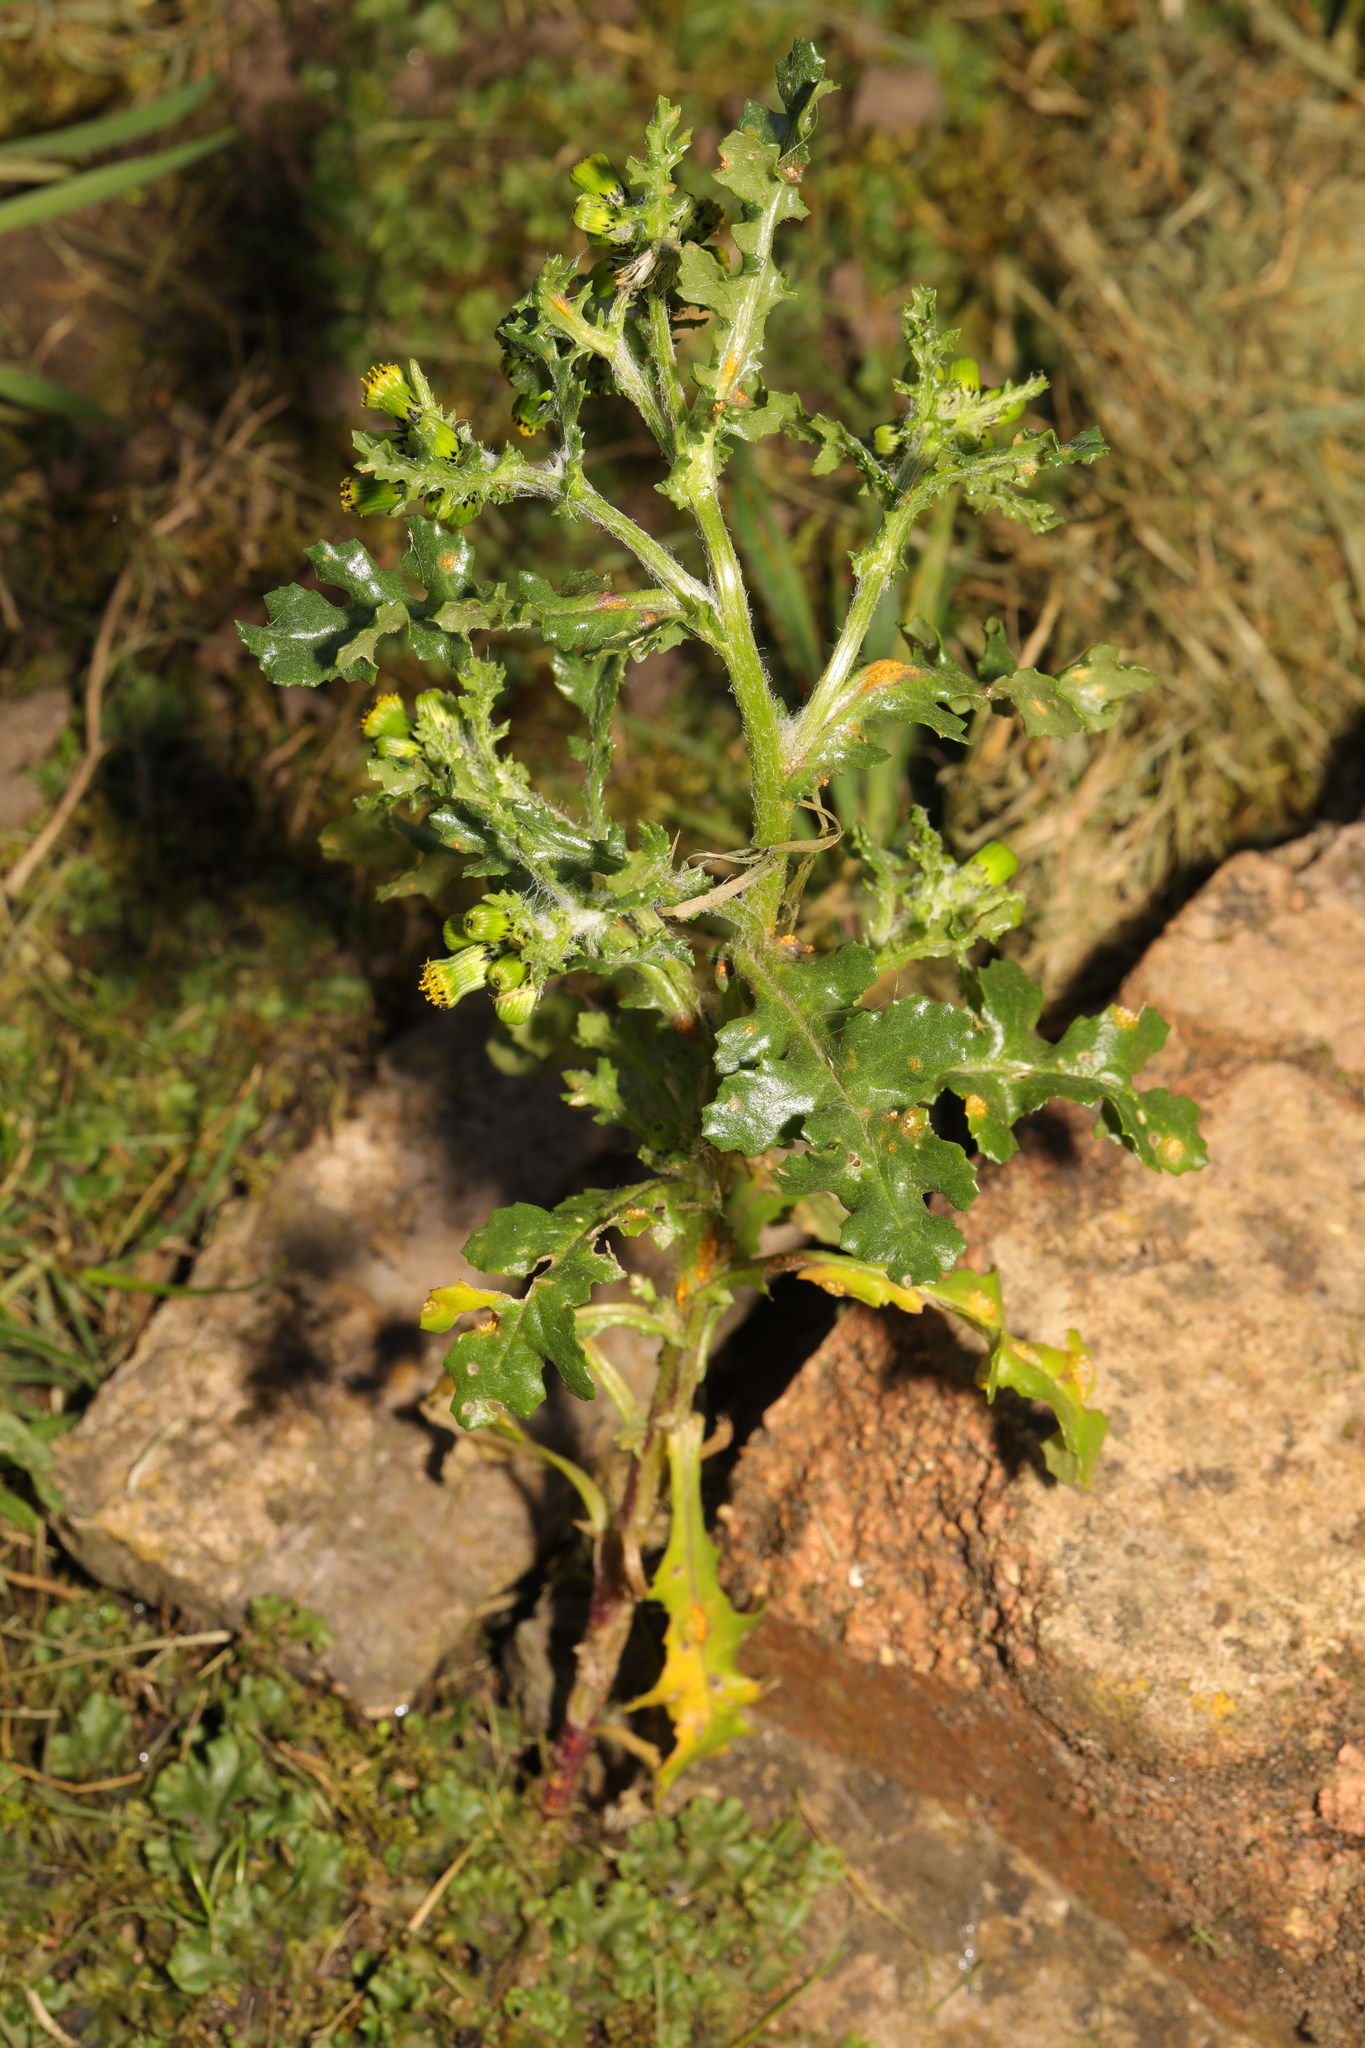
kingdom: Plantae
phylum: Tracheophyta
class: Magnoliopsida
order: Asterales
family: Asteraceae
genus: Senecio
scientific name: Senecio vulgaris
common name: Old-man-in-the-spring
